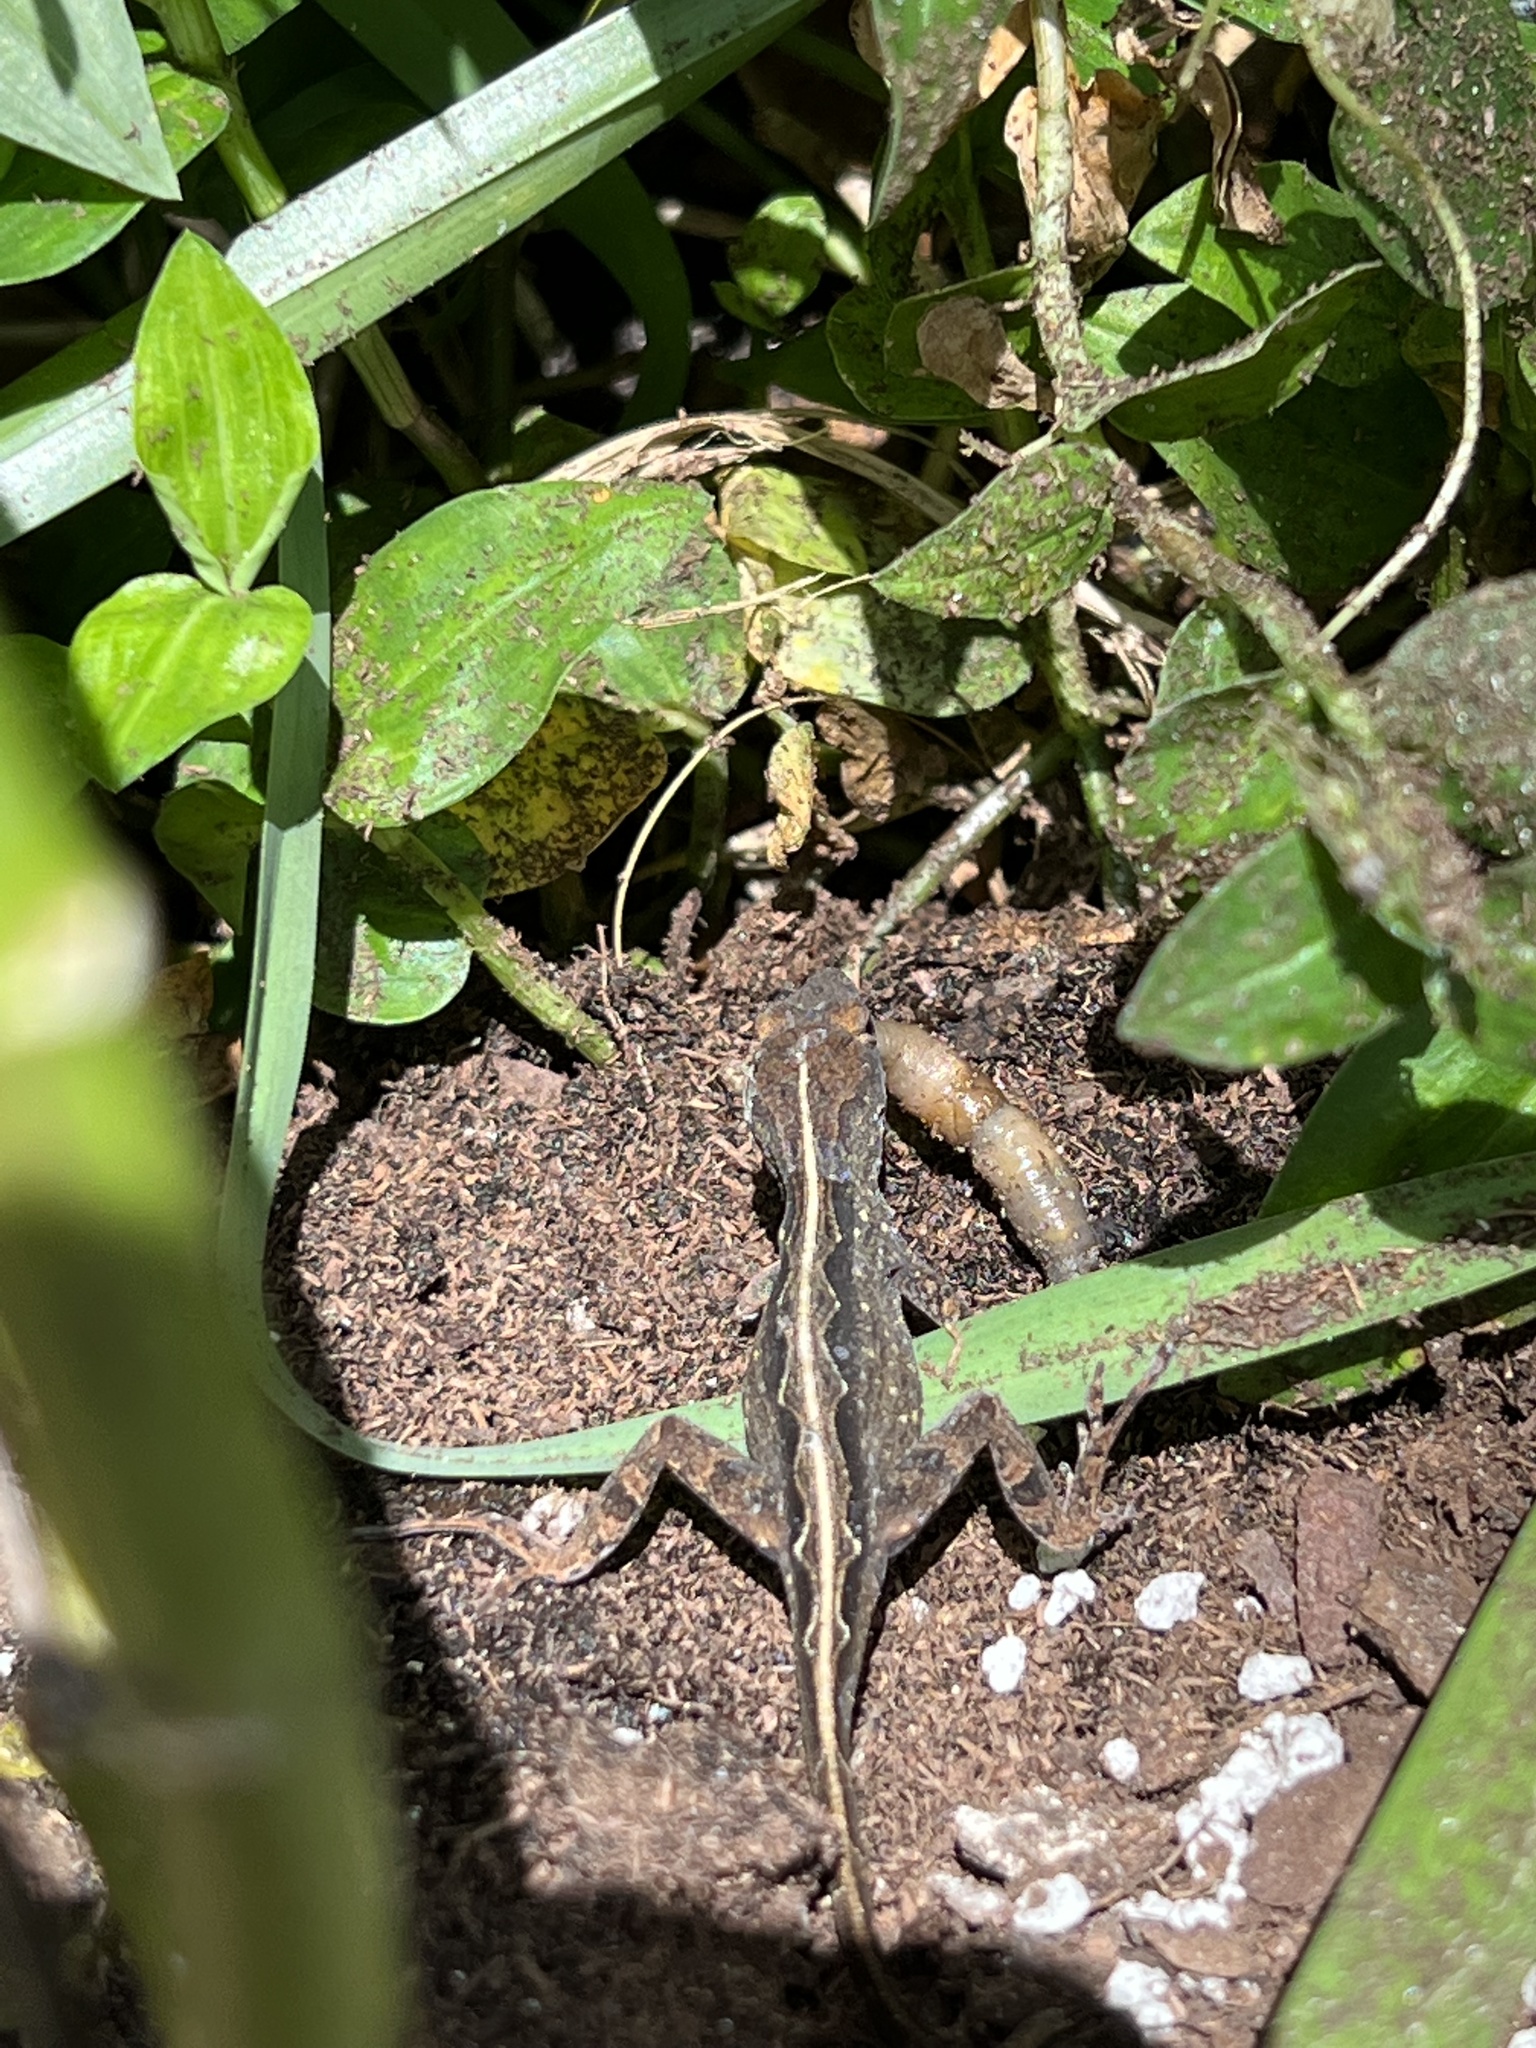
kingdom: Animalia
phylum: Chordata
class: Squamata
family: Dactyloidae
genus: Anolis
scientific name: Anolis sagrei
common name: Brown anole
